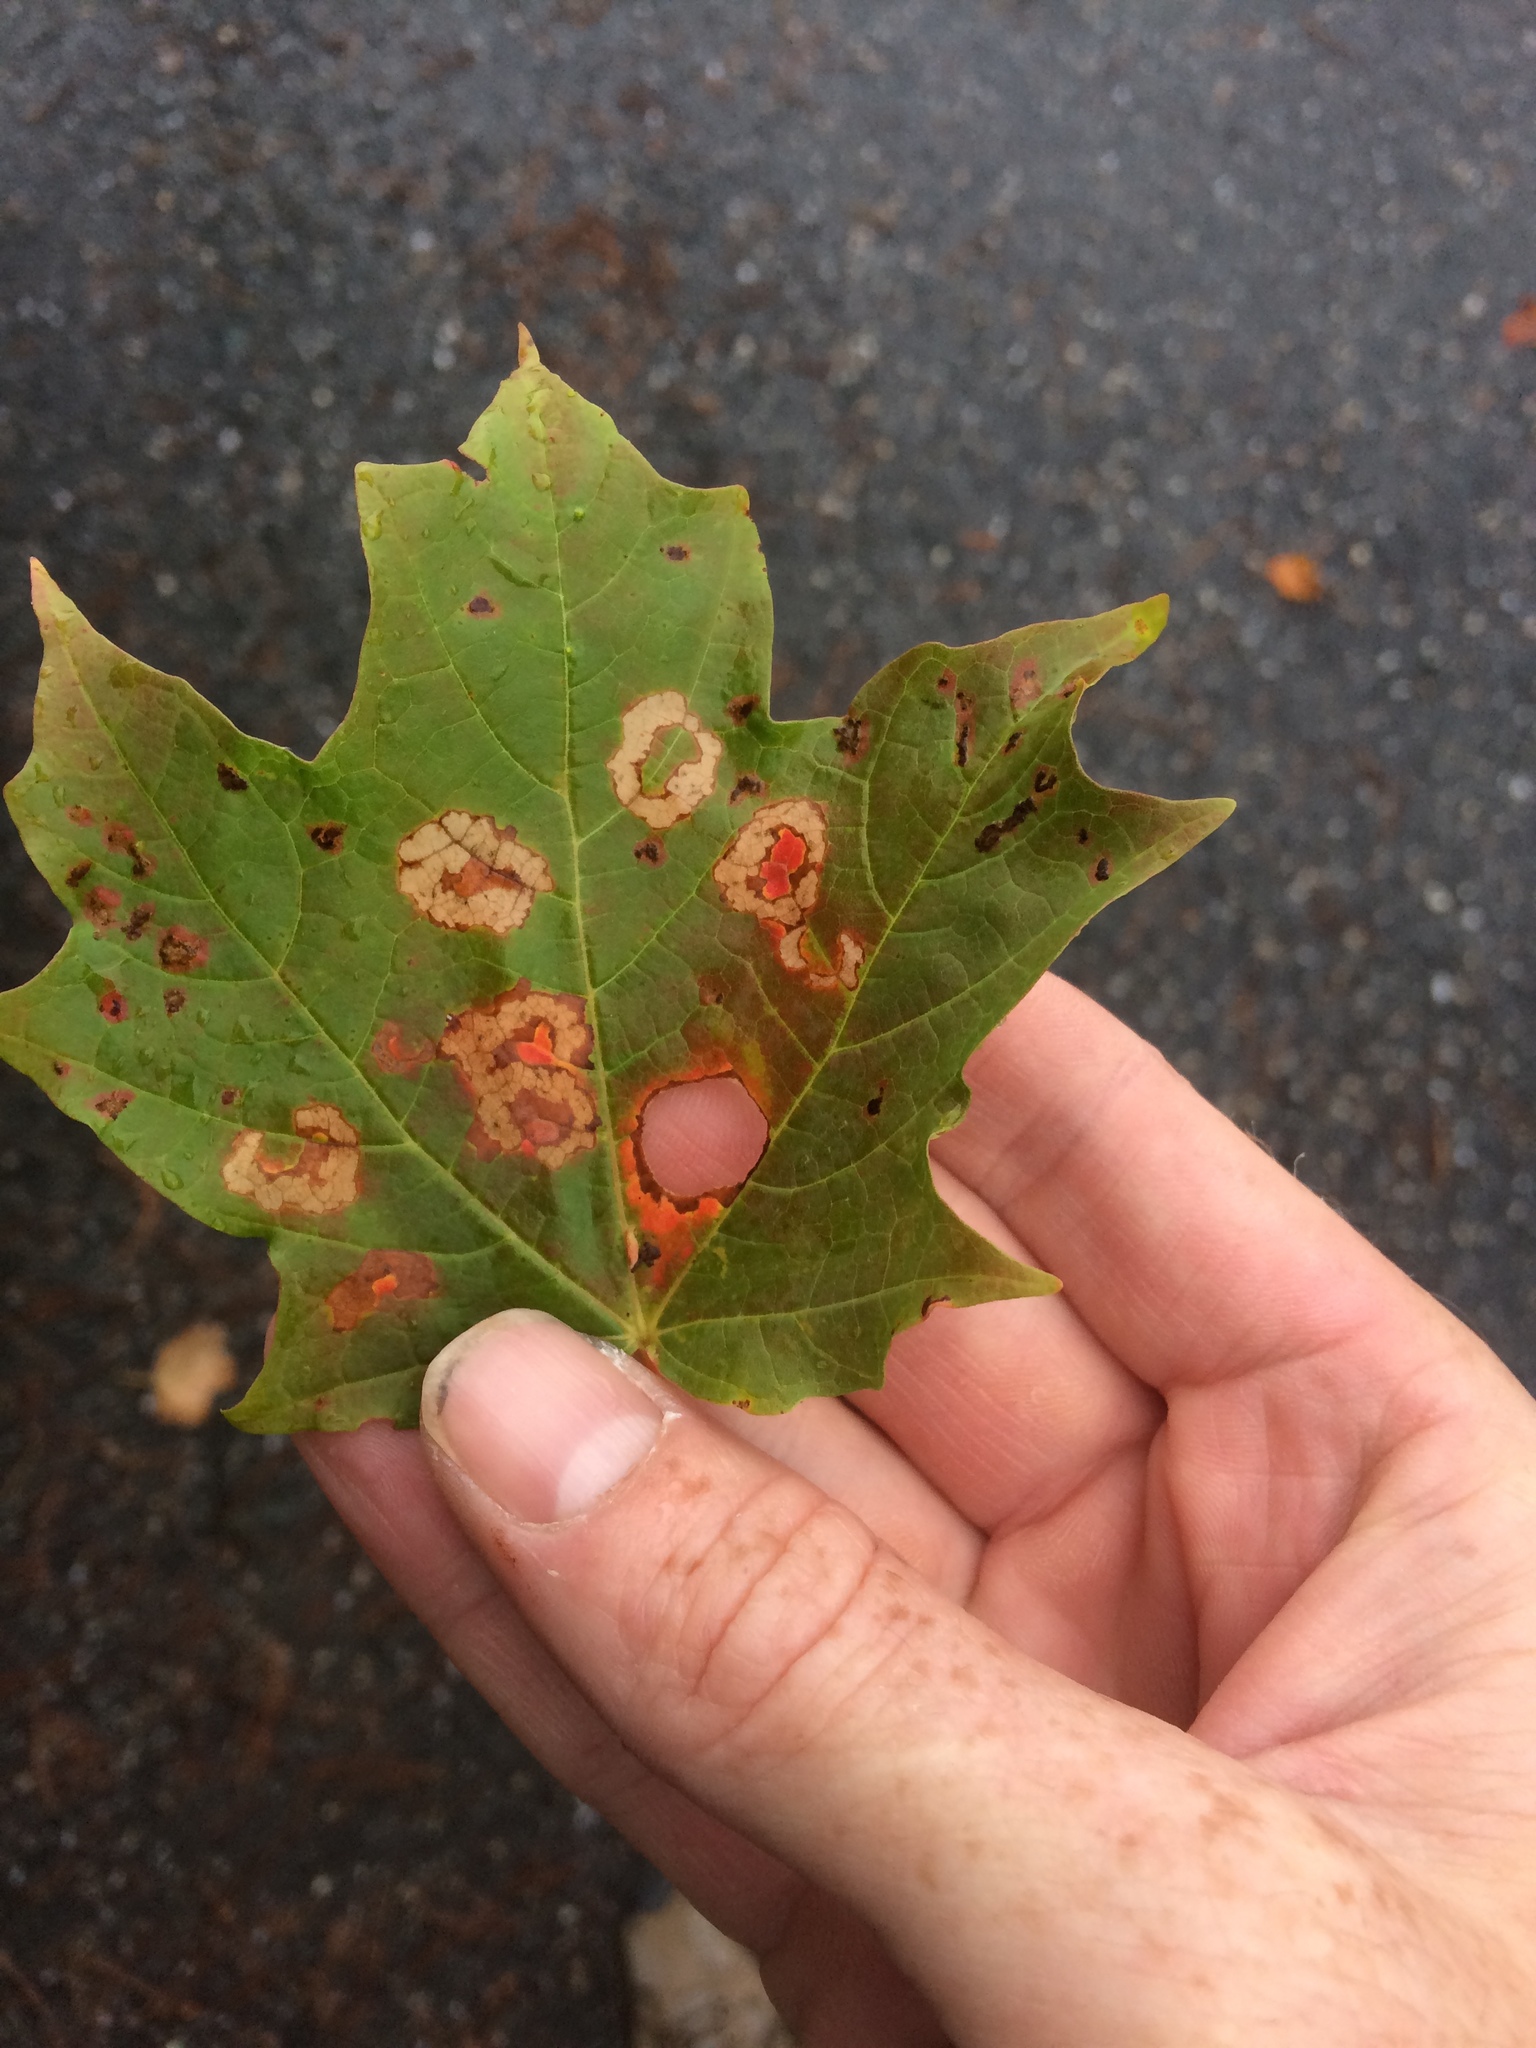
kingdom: Animalia
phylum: Arthropoda
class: Insecta
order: Lepidoptera
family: Incurvariidae
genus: Paraclemensia
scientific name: Paraclemensia acerifoliella
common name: Maple leafcutter
